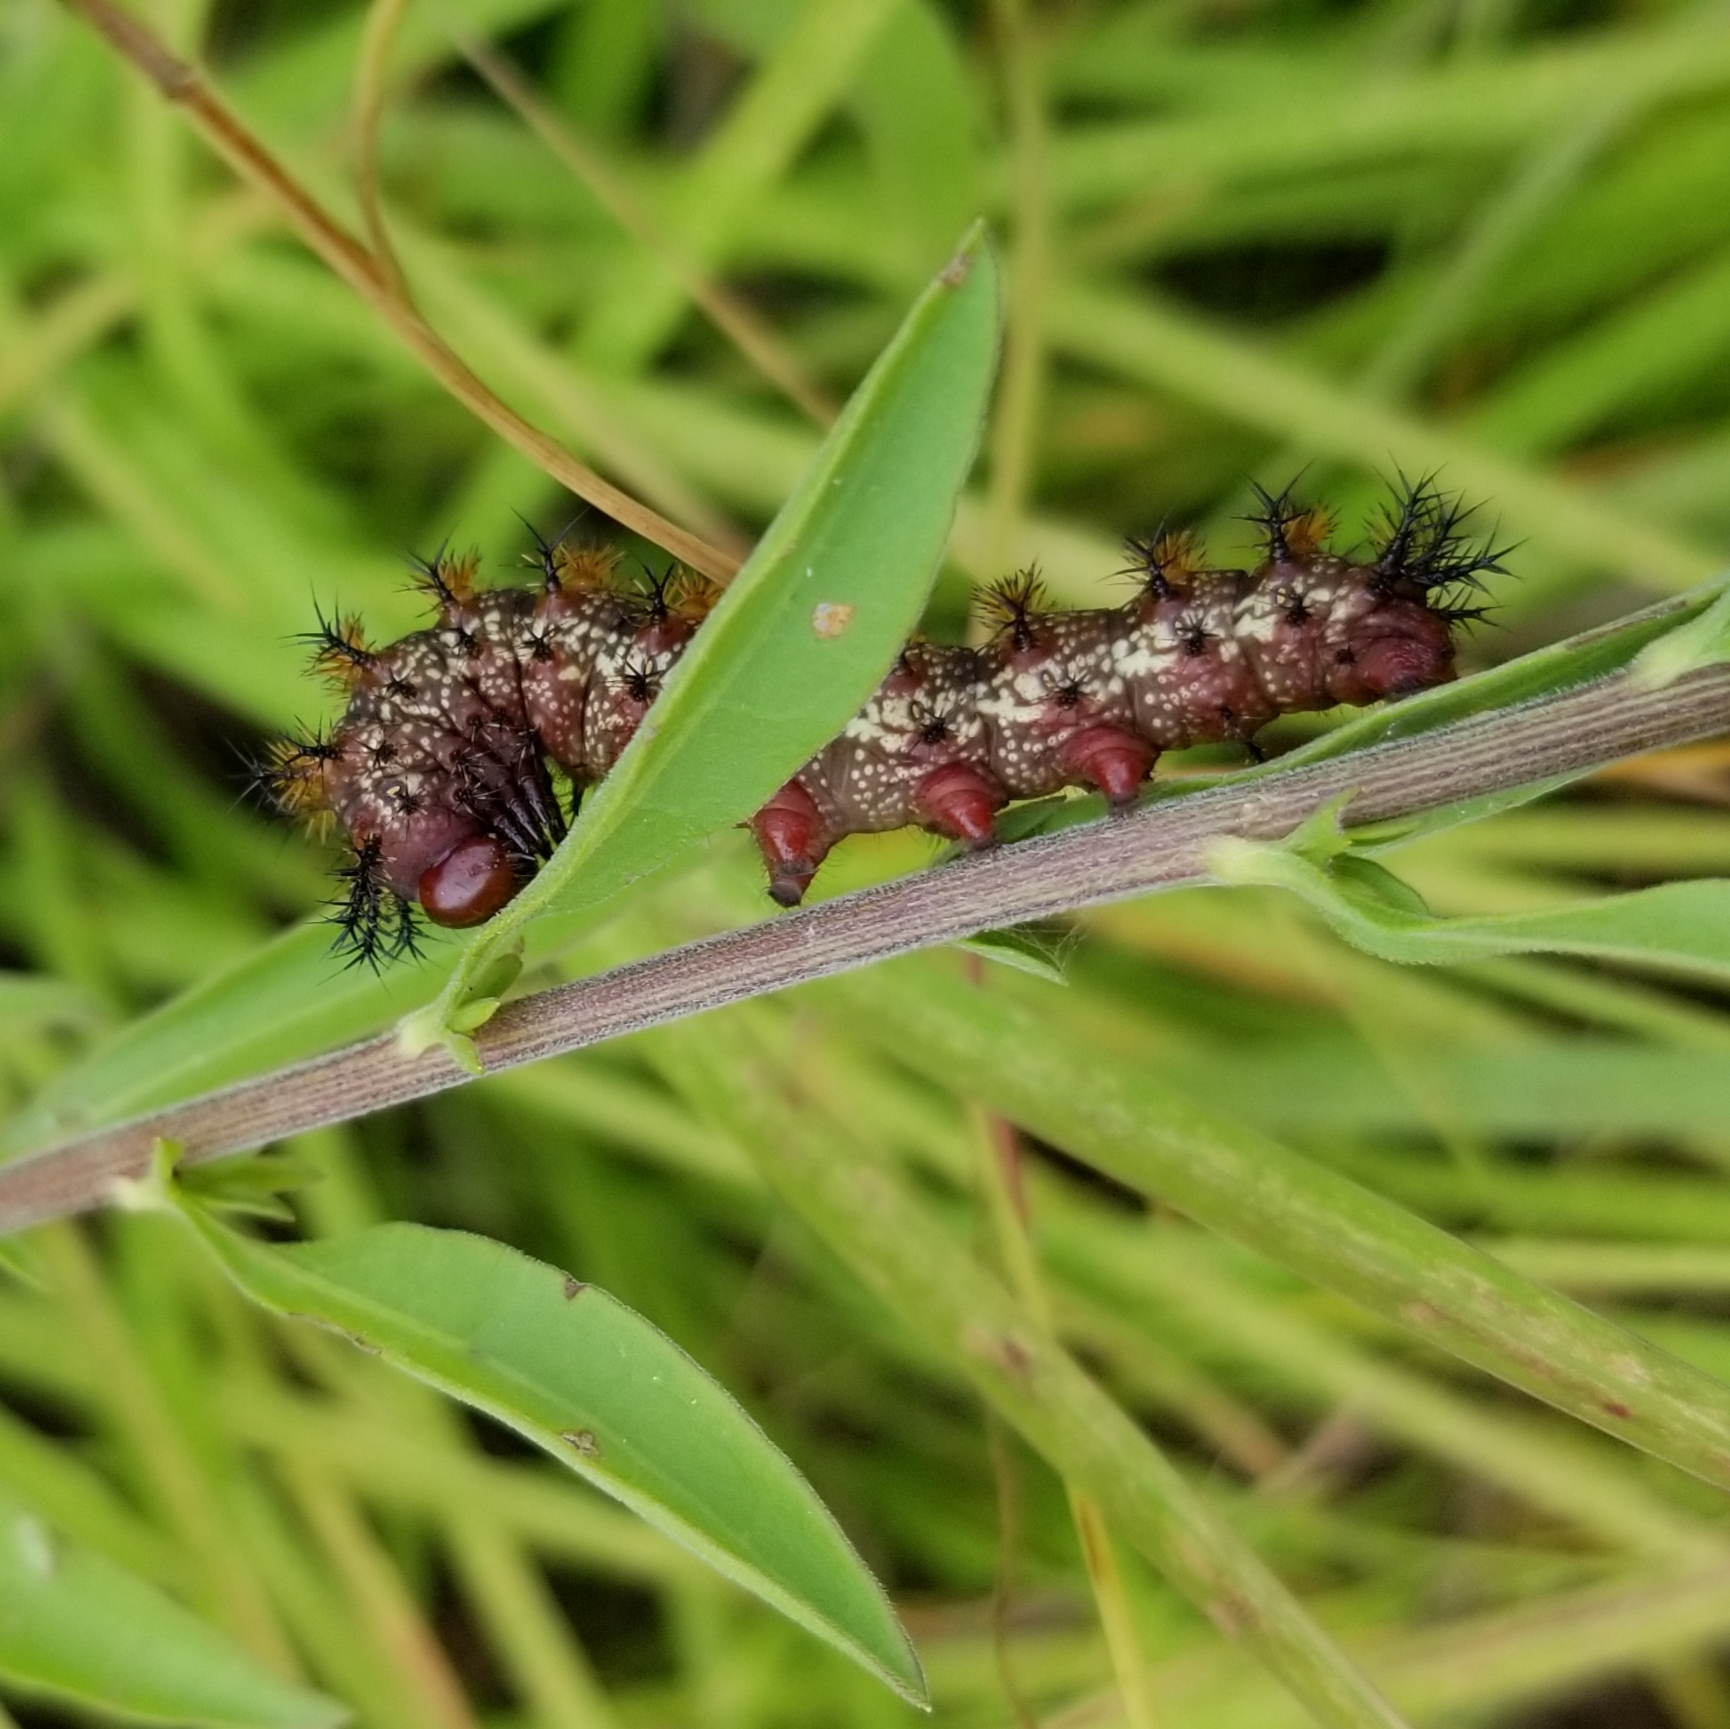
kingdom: Animalia
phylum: Arthropoda
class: Insecta
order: Lepidoptera
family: Saturniidae
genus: Hemileuca
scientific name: Hemileuca maia
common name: Eastern buckmoth
